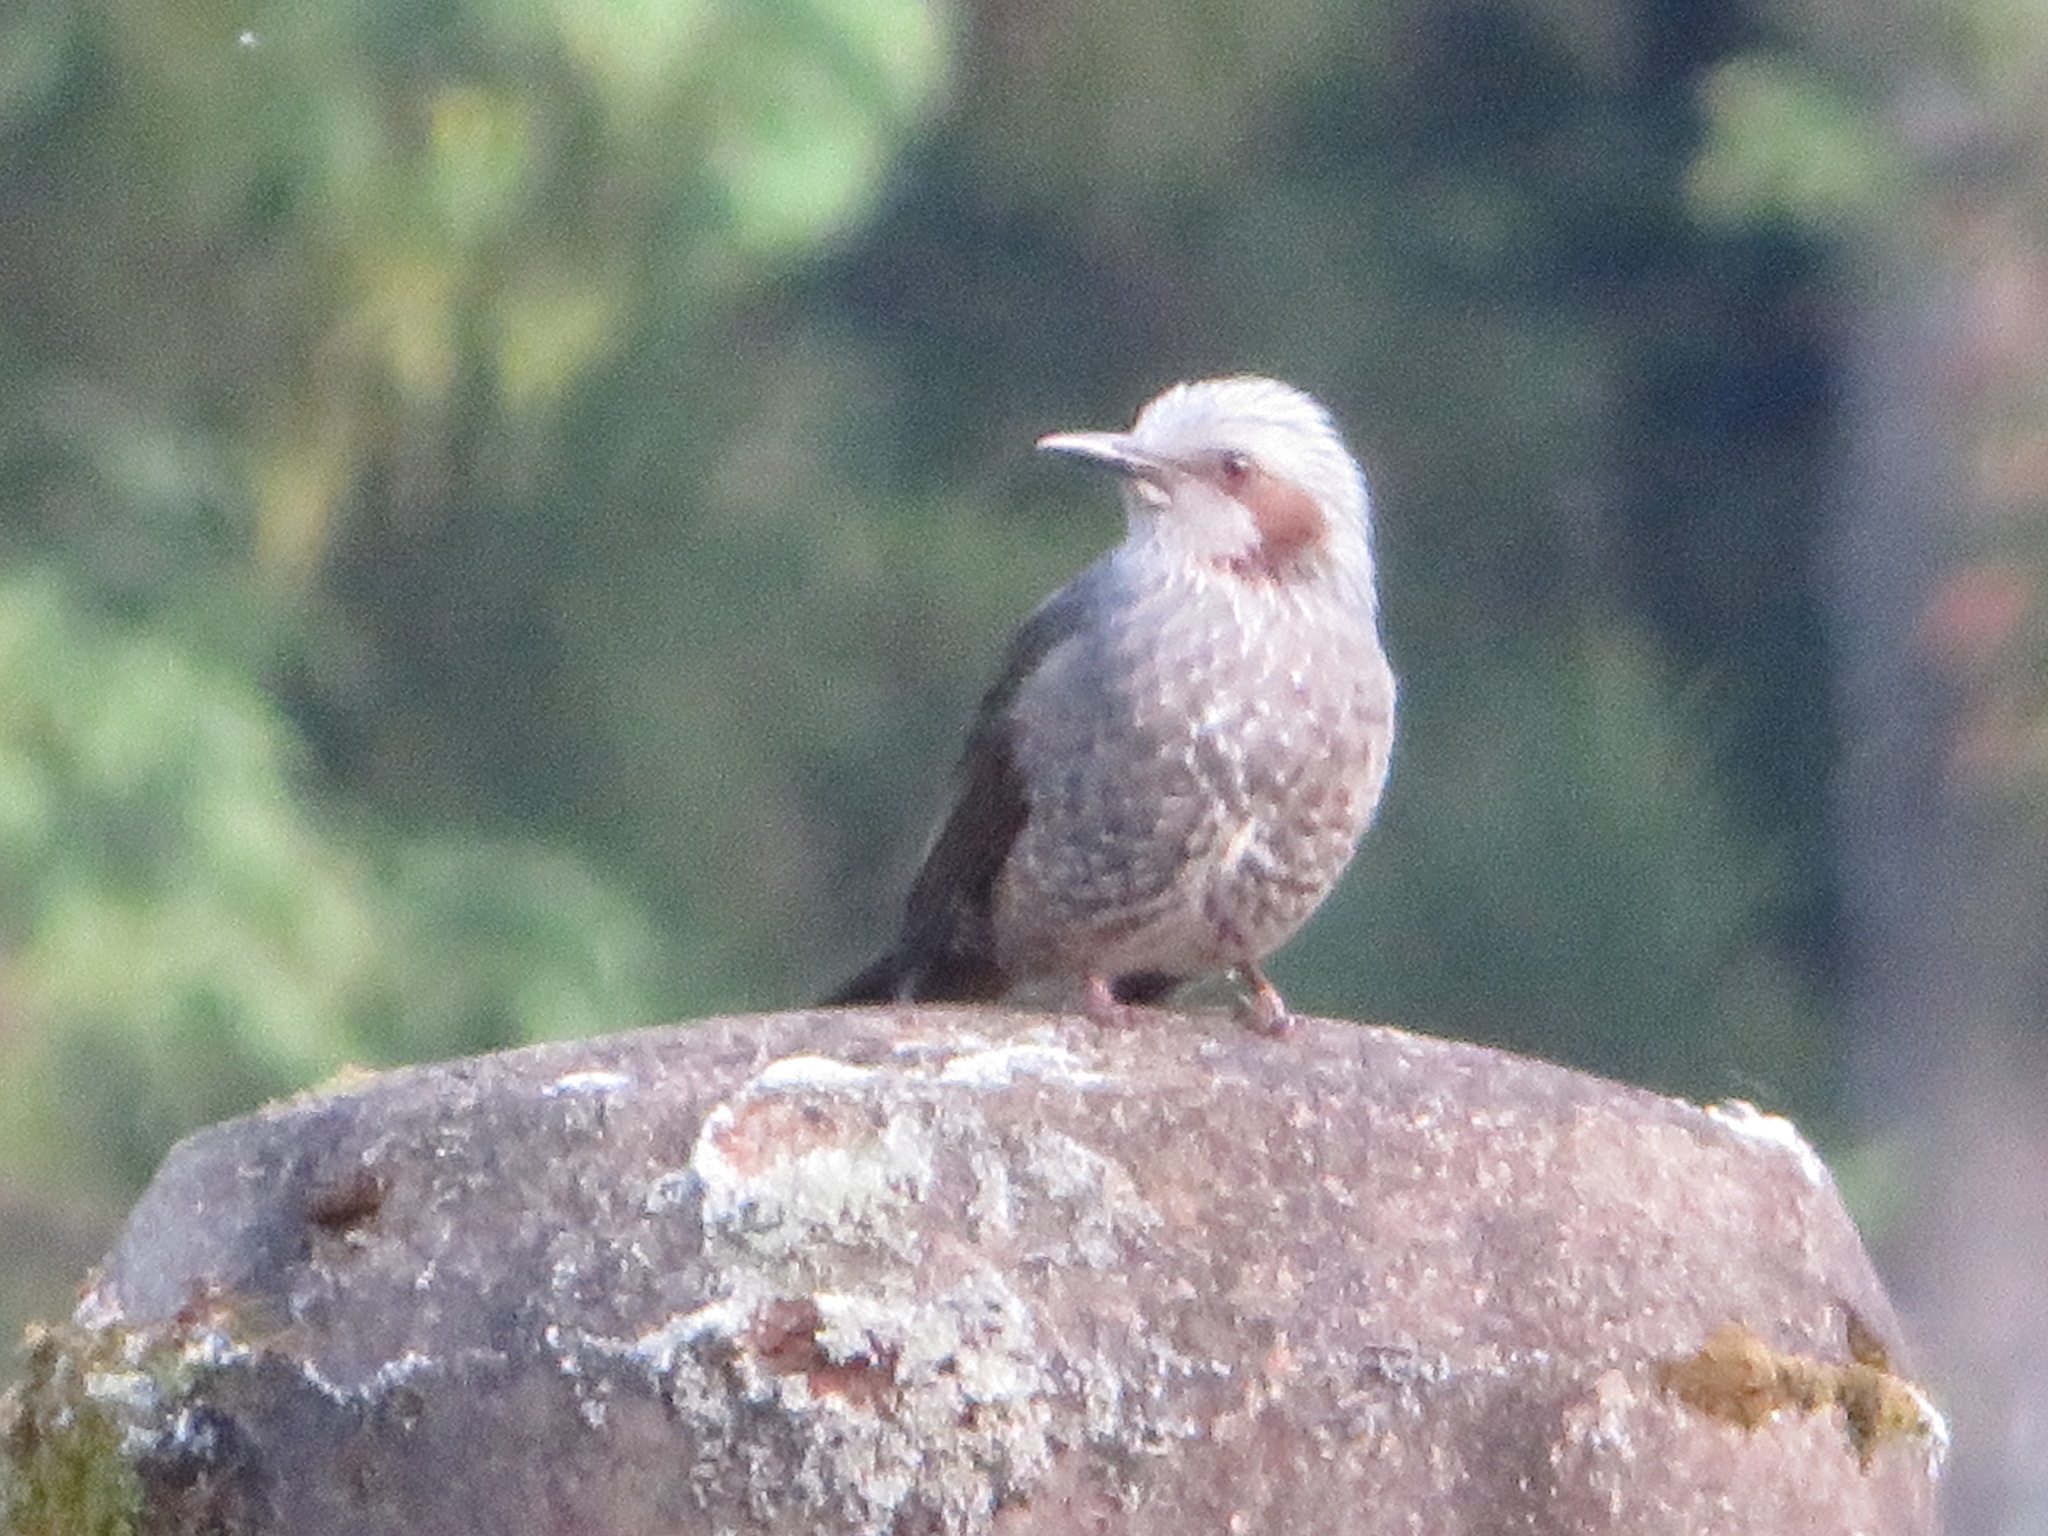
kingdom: Animalia
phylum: Chordata
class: Aves
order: Passeriformes
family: Pycnonotidae
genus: Hypsipetes
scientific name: Hypsipetes amaurotis
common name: Brown-eared bulbul
